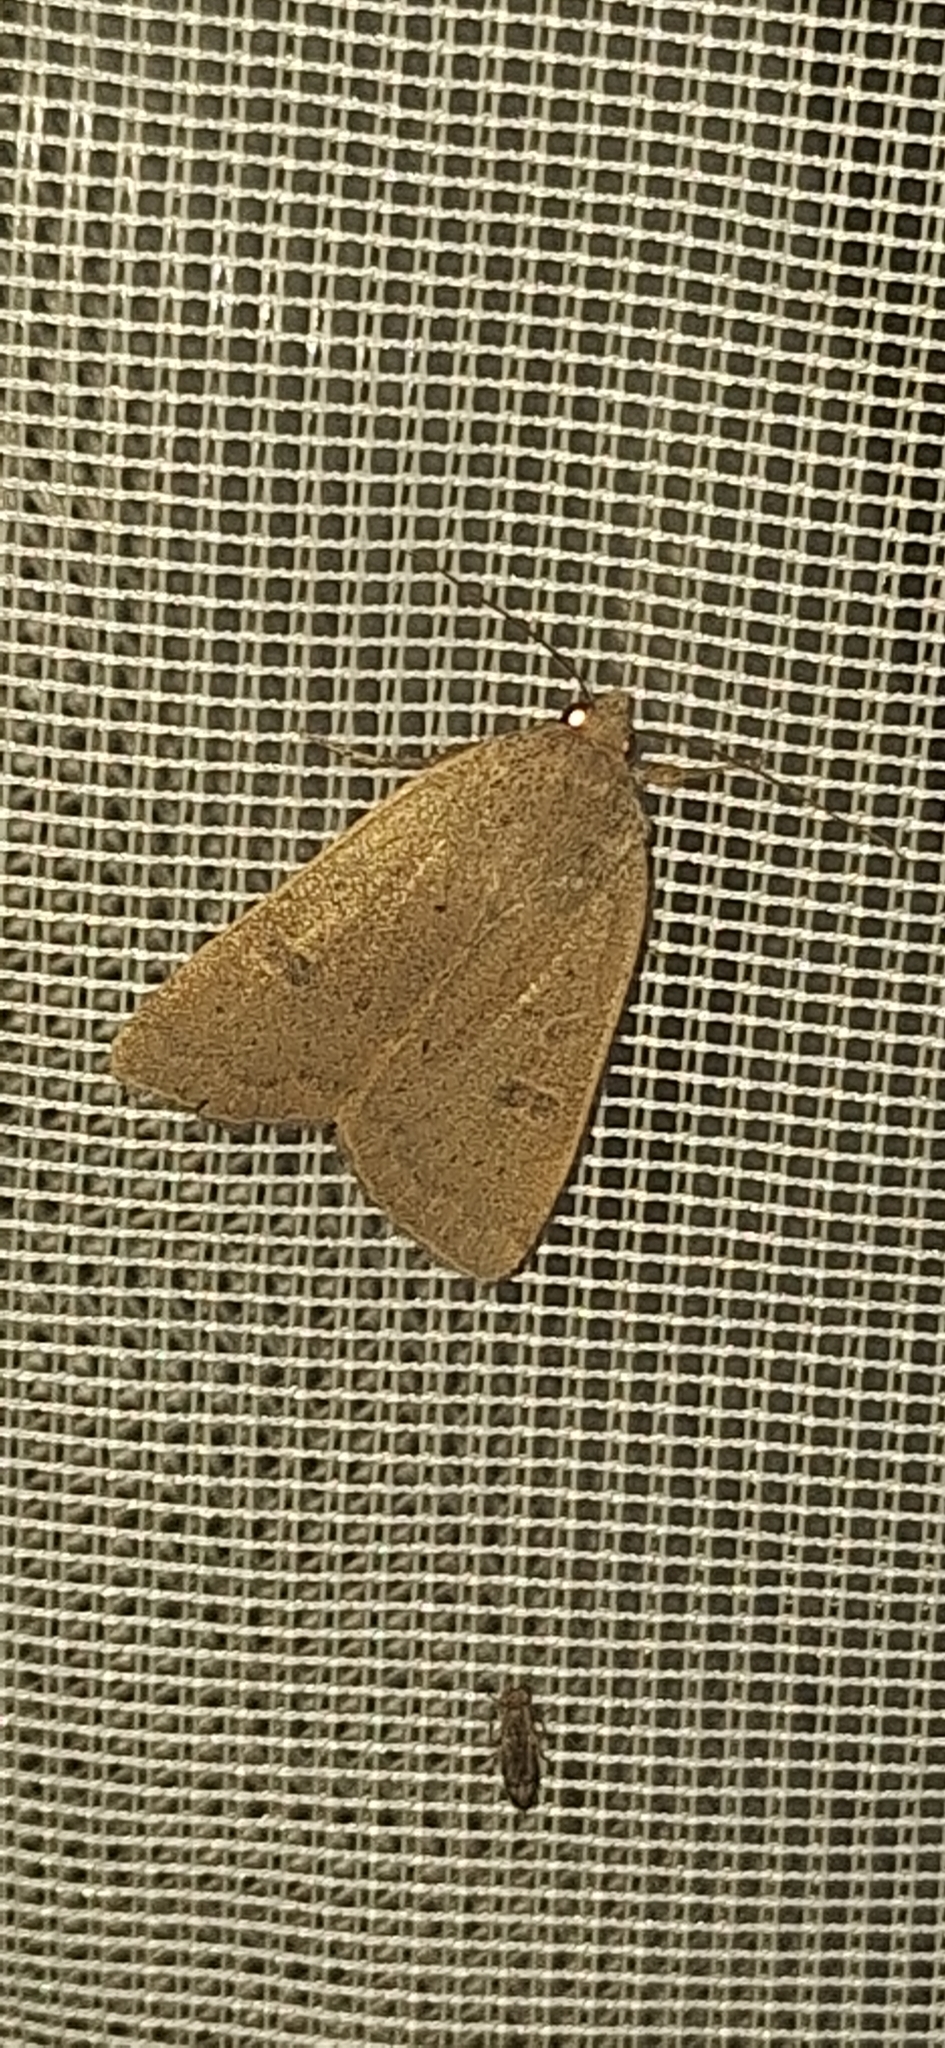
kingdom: Animalia
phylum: Arthropoda
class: Insecta
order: Lepidoptera
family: Noctuidae
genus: Noctua
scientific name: Noctua comes
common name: Lesser yellow underwing
